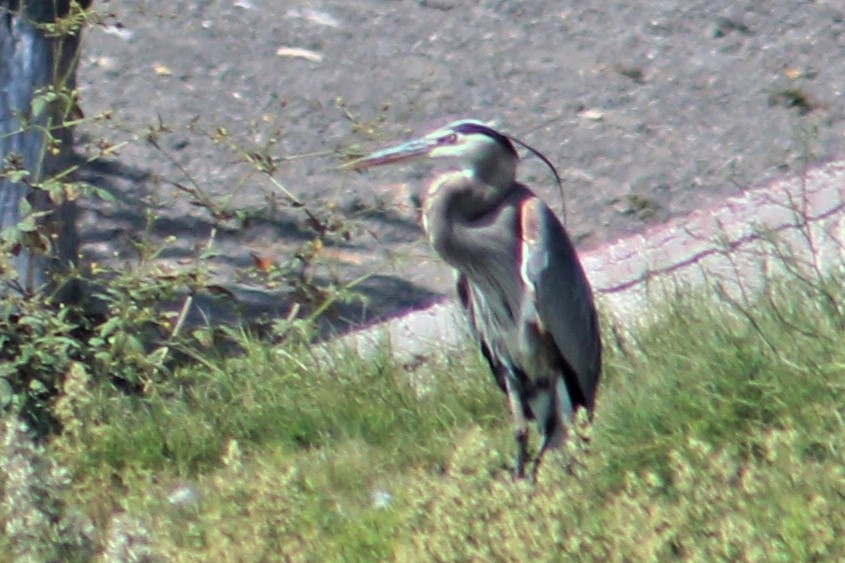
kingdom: Animalia
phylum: Chordata
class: Aves
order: Pelecaniformes
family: Ardeidae
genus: Ardea
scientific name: Ardea herodias
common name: Great blue heron
